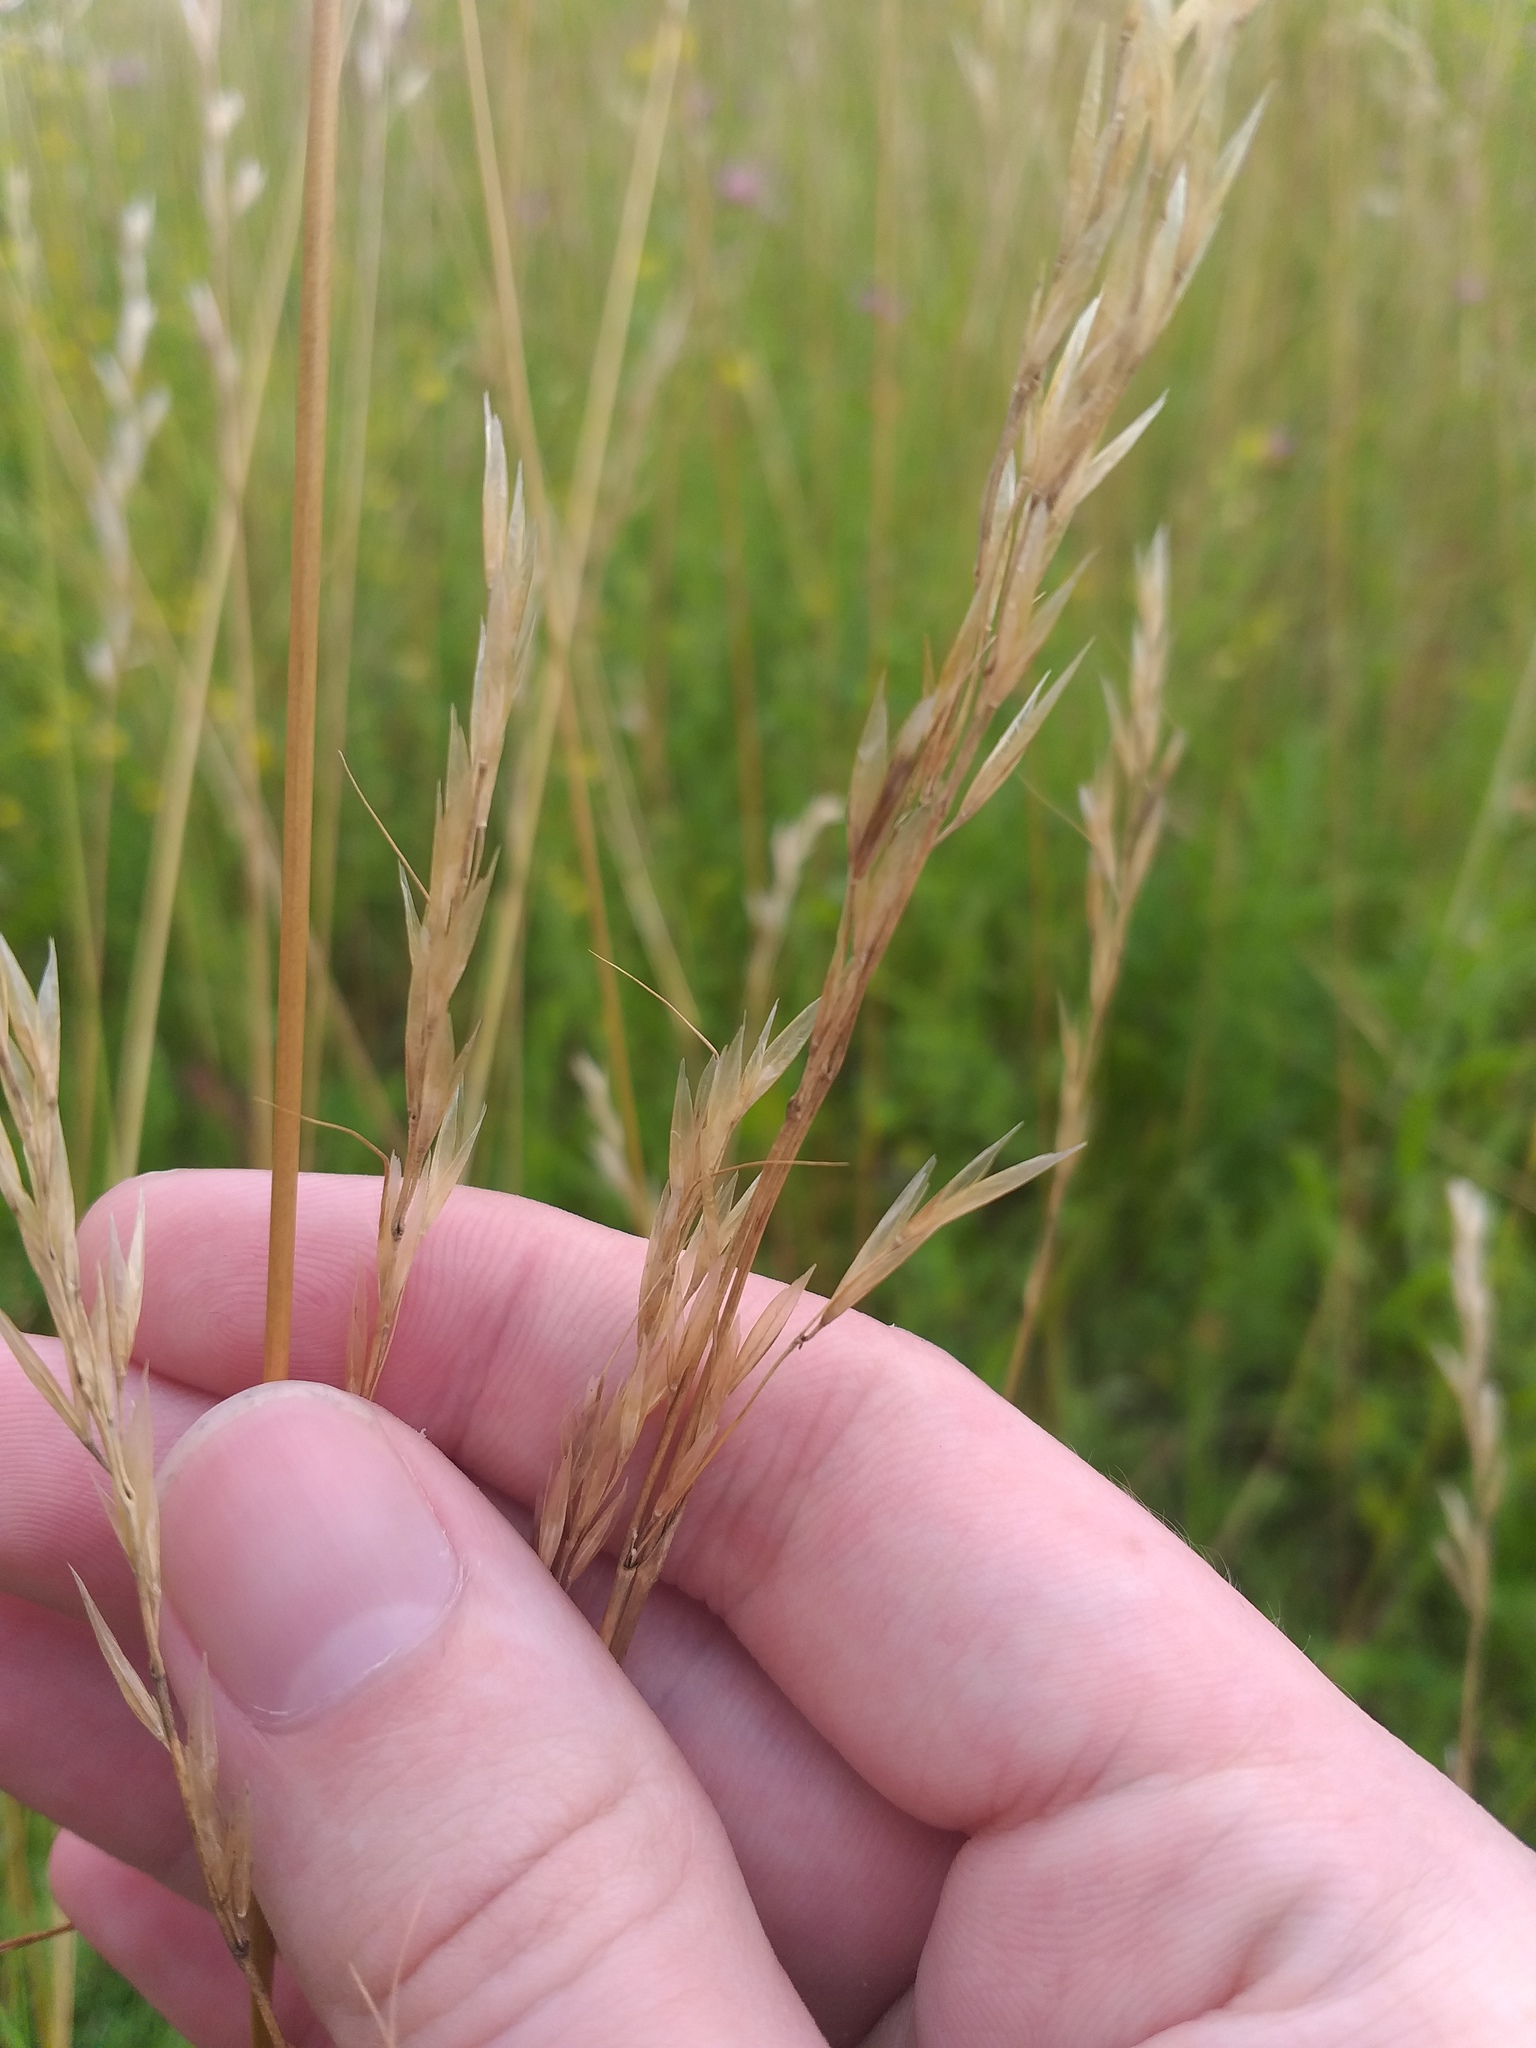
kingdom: Plantae
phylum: Tracheophyta
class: Liliopsida
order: Poales
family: Poaceae
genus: Avenula
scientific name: Avenula pubescens
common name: Downy alpine oatgrass
